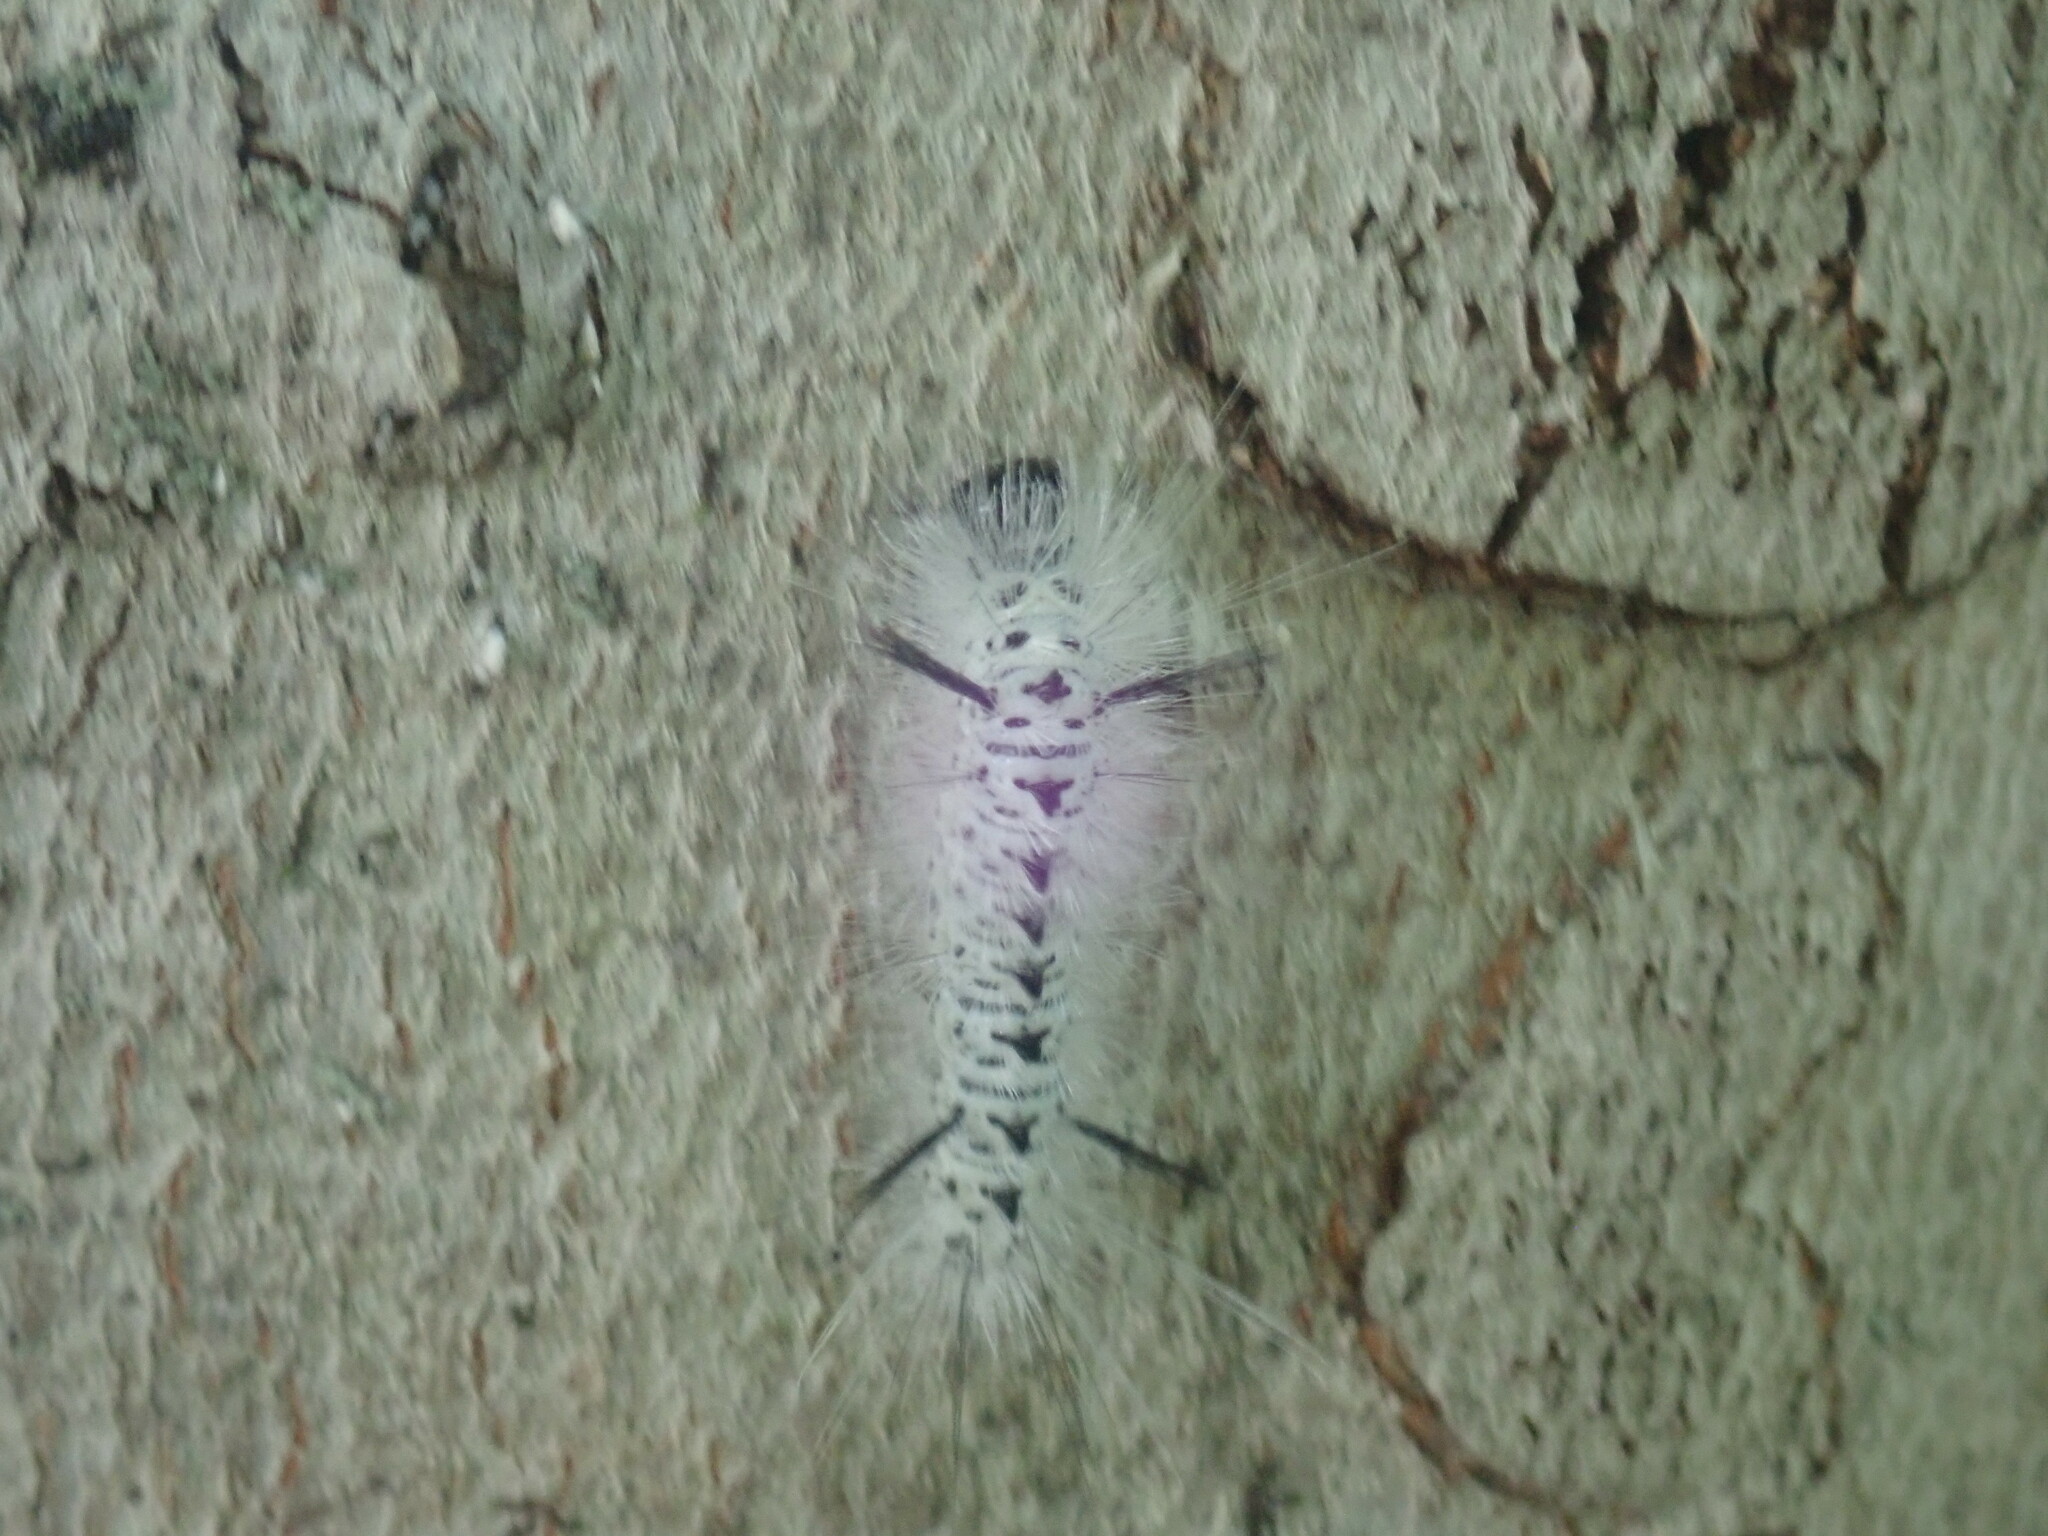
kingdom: Animalia
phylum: Arthropoda
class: Insecta
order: Lepidoptera
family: Erebidae
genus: Lophocampa
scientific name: Lophocampa caryae
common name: Hickory tussock moth
